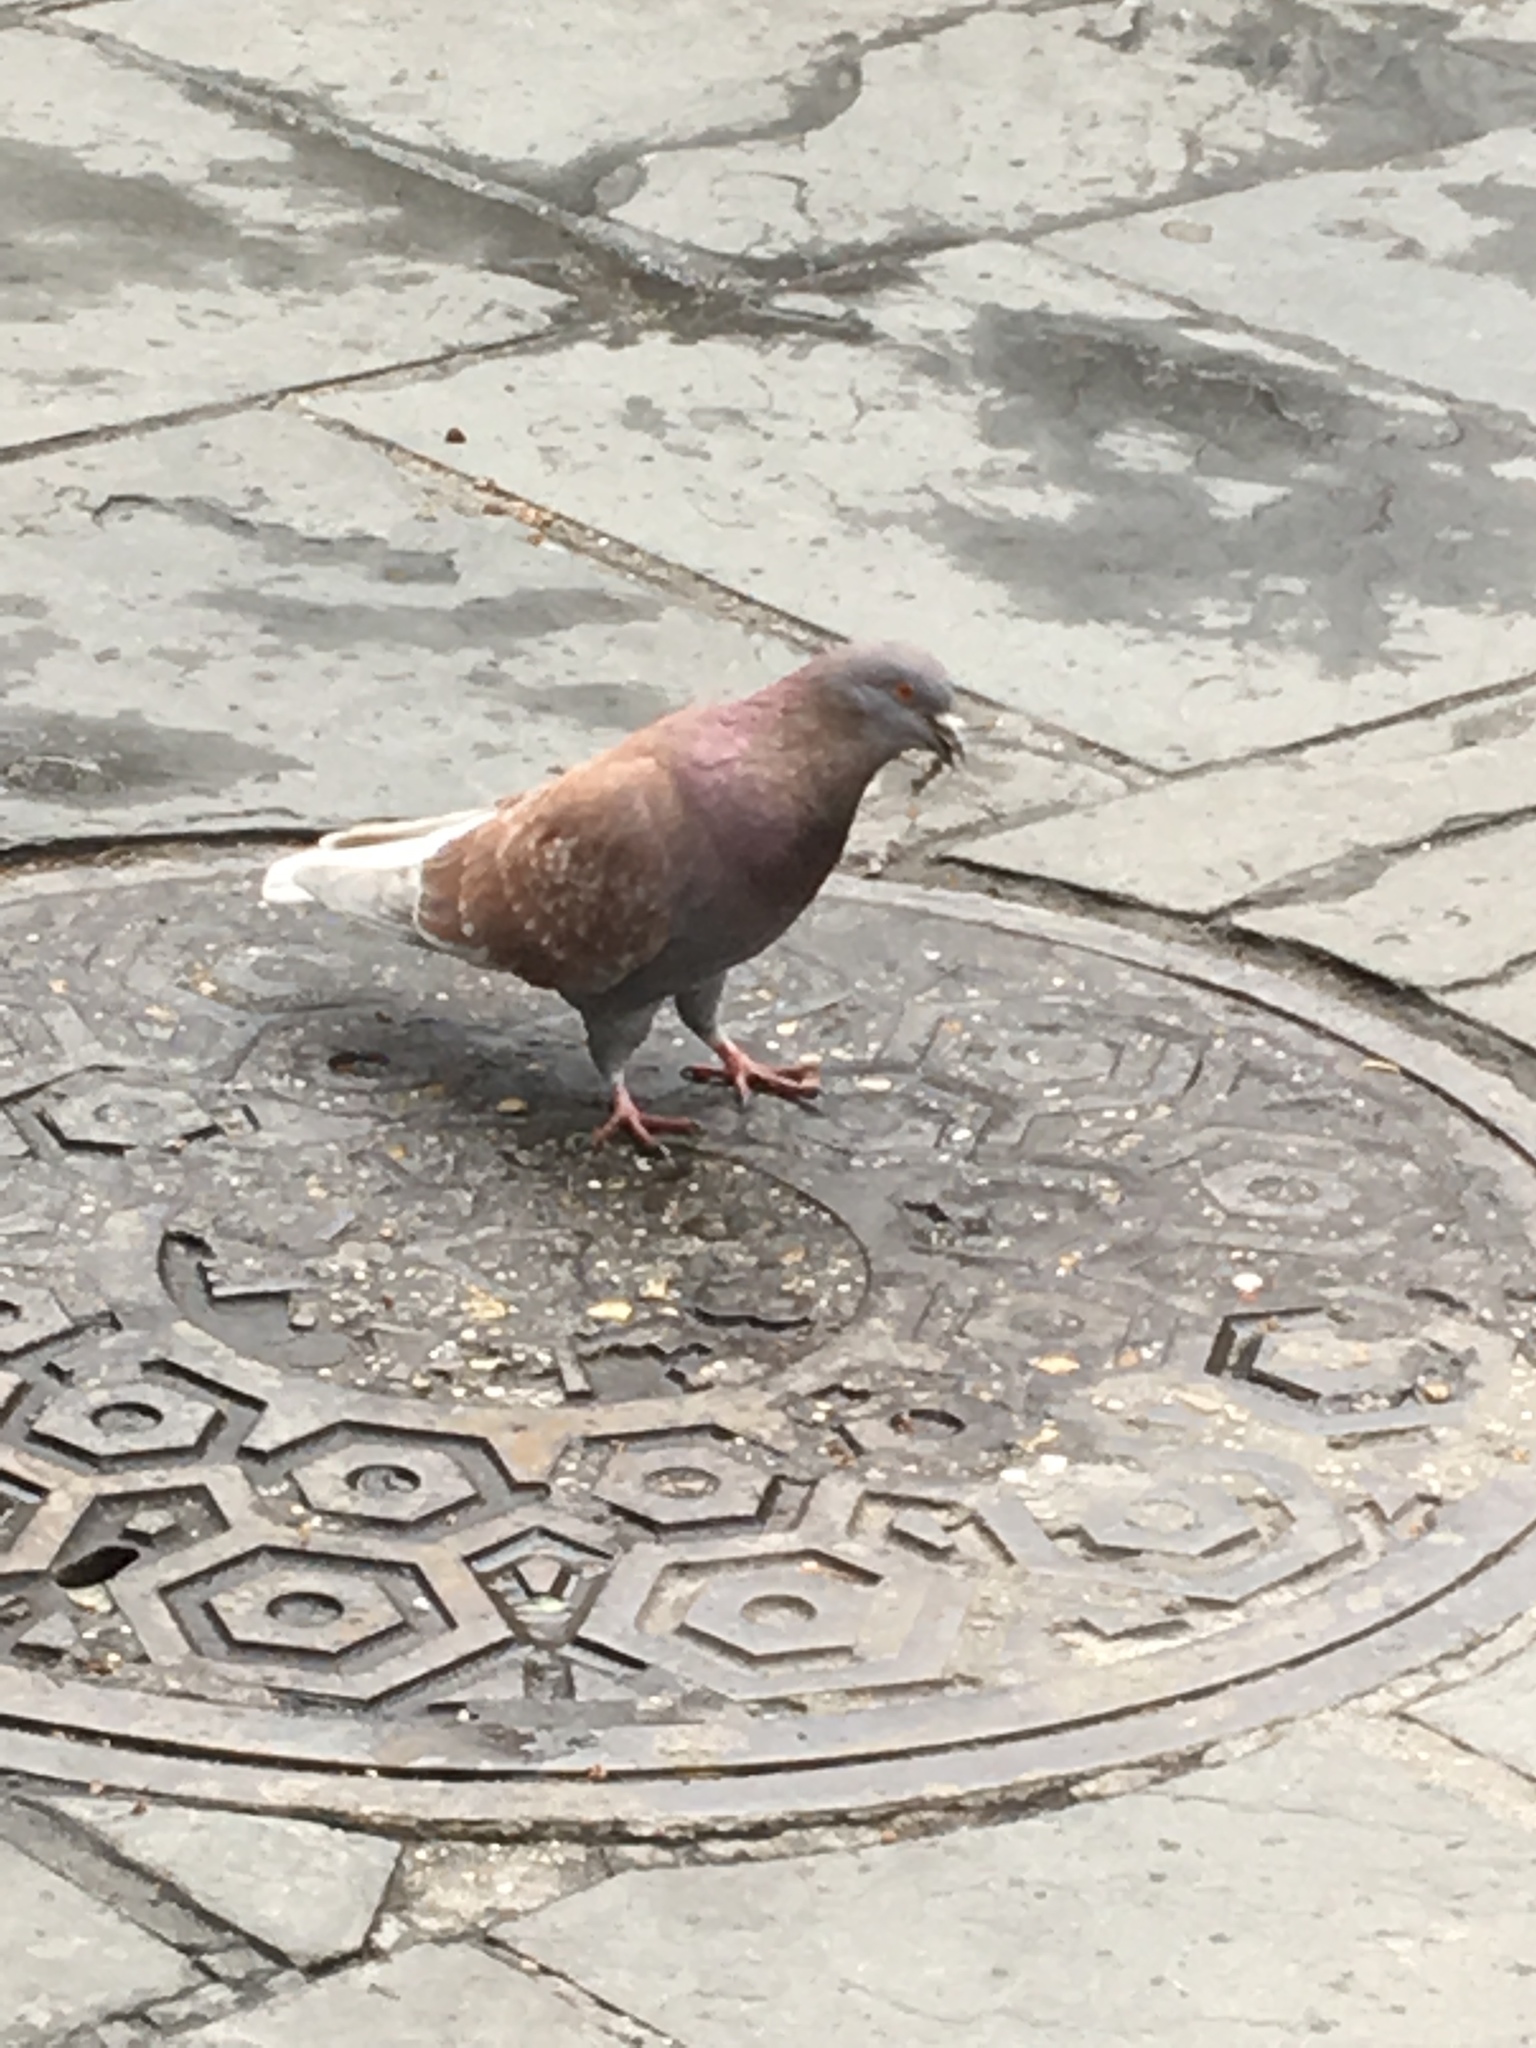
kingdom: Animalia
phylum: Chordata
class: Aves
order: Columbiformes
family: Columbidae
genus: Columba
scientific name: Columba livia
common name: Rock pigeon
